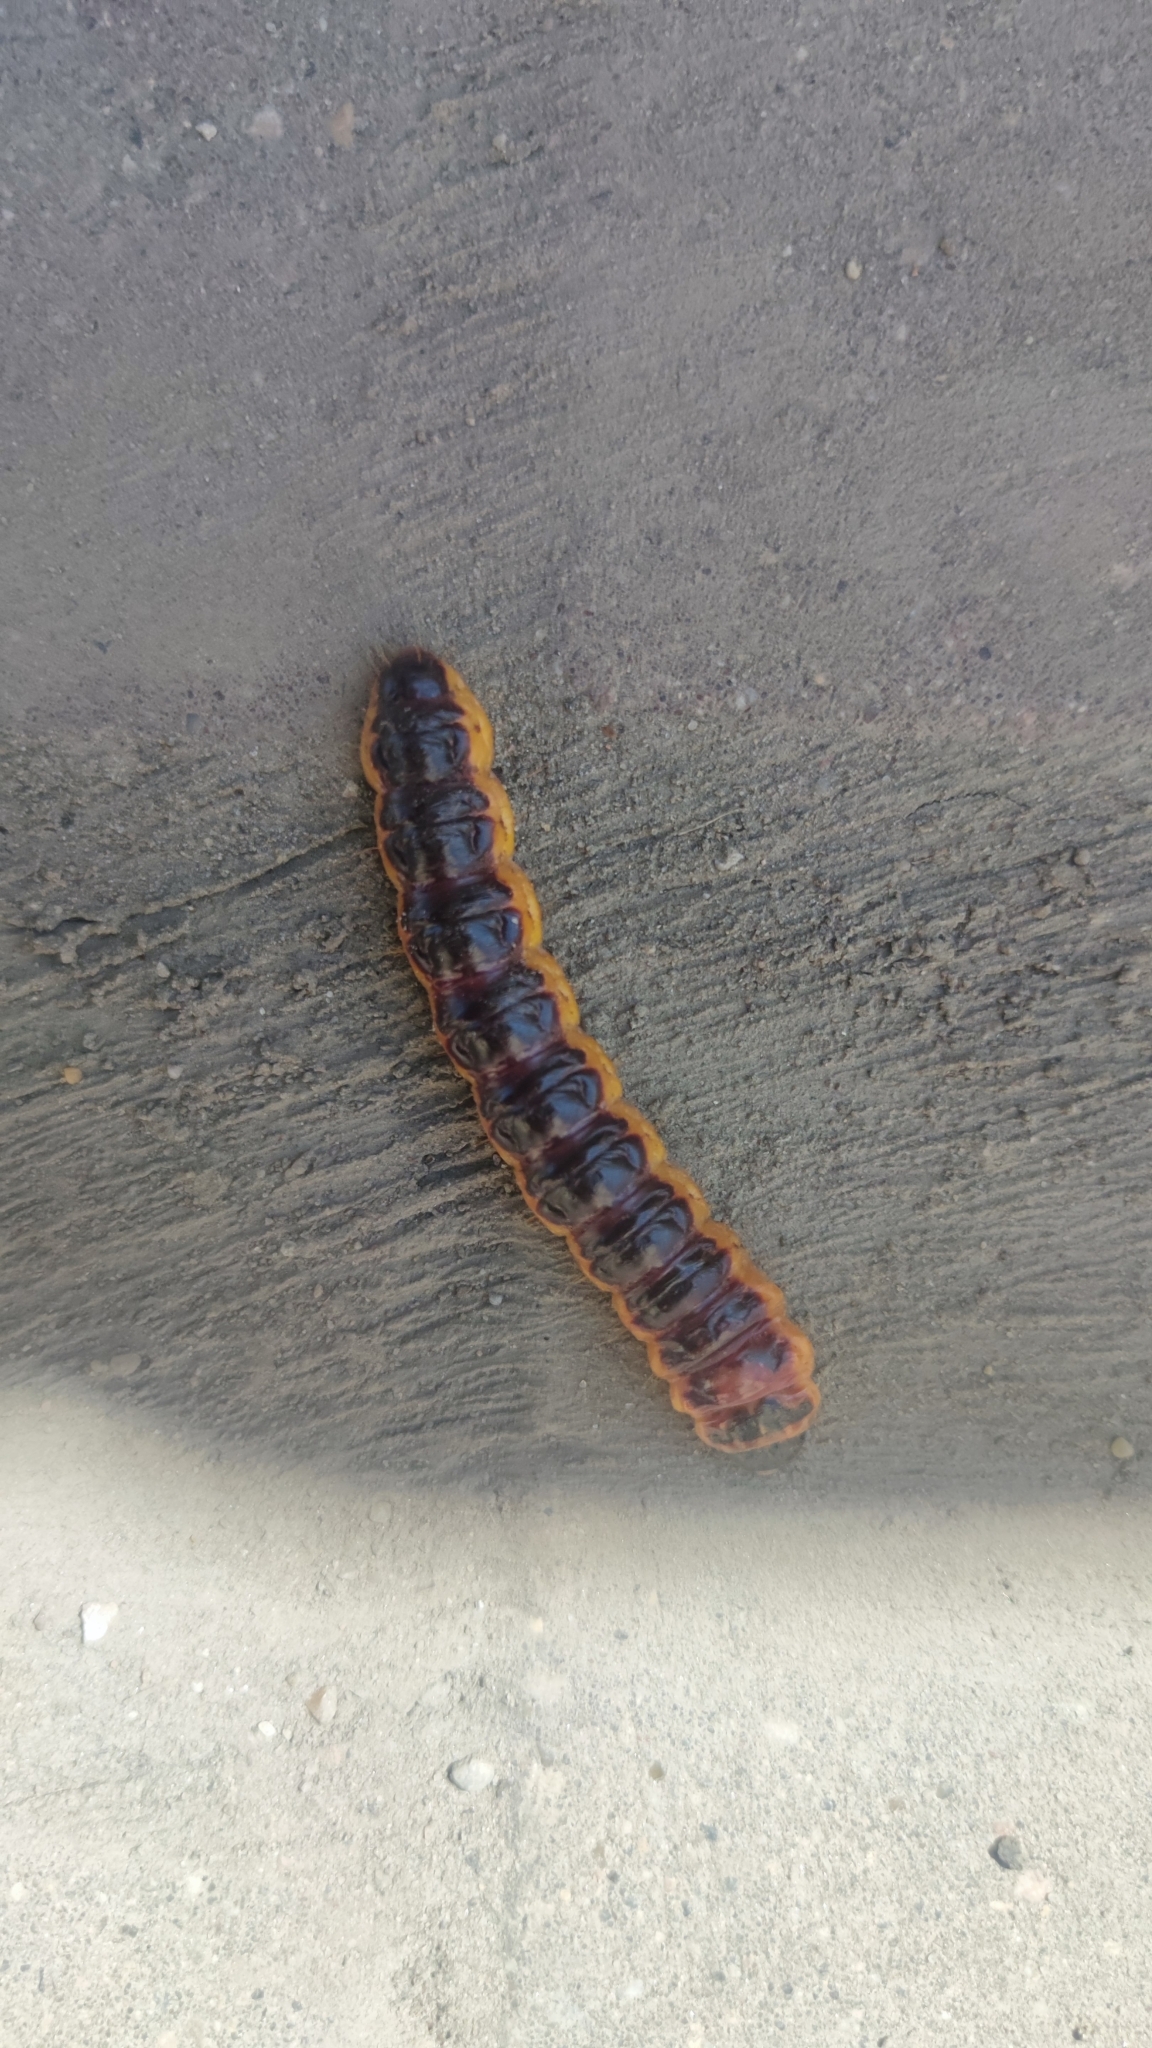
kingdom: Animalia
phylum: Arthropoda
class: Insecta
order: Lepidoptera
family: Cossidae
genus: Cossus
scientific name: Cossus cossus
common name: Goat moth
